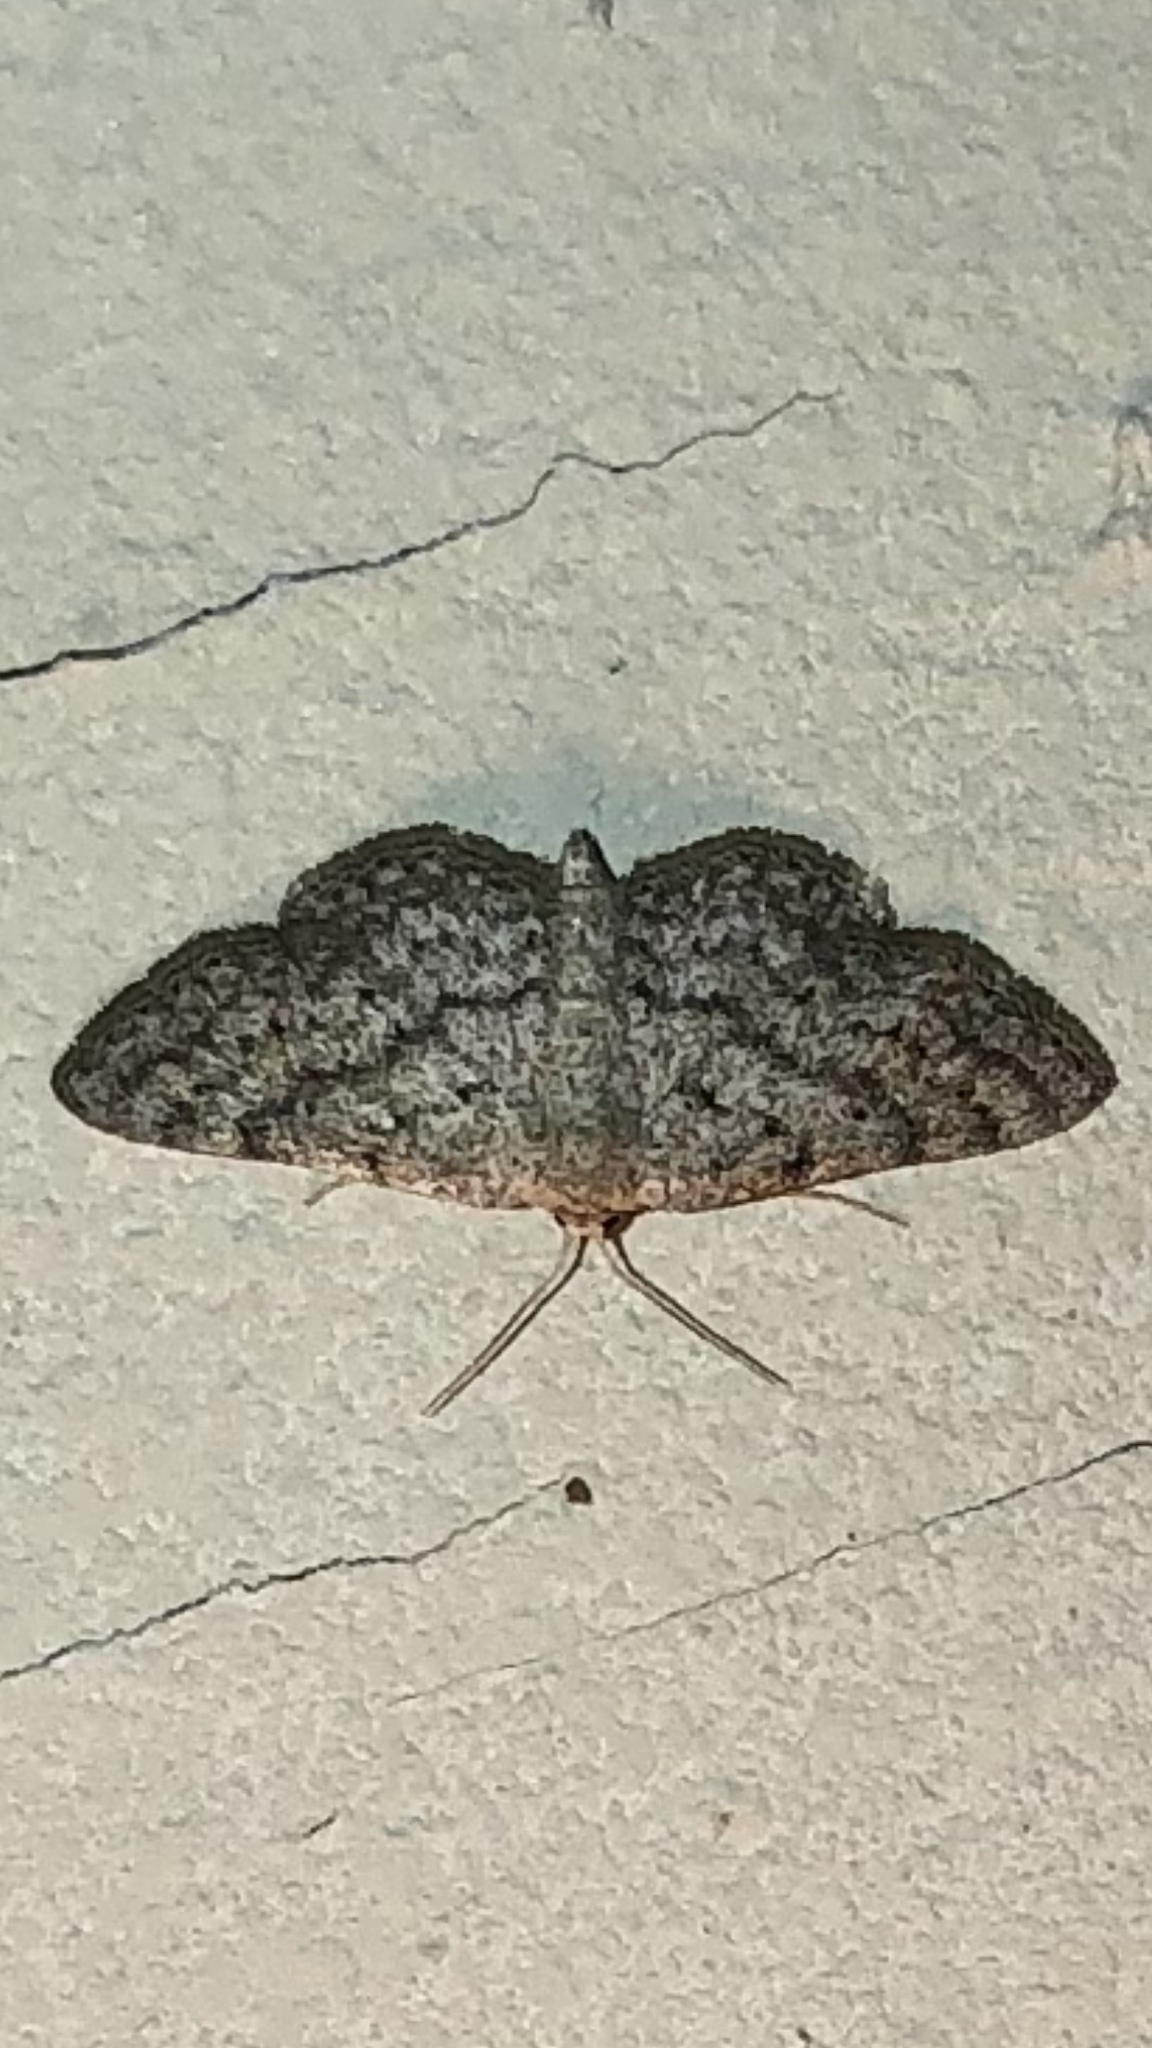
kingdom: Animalia
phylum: Arthropoda
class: Insecta
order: Lepidoptera
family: Geometridae
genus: Lobocleta
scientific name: Lobocleta ossularia
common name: Drab brown wave
